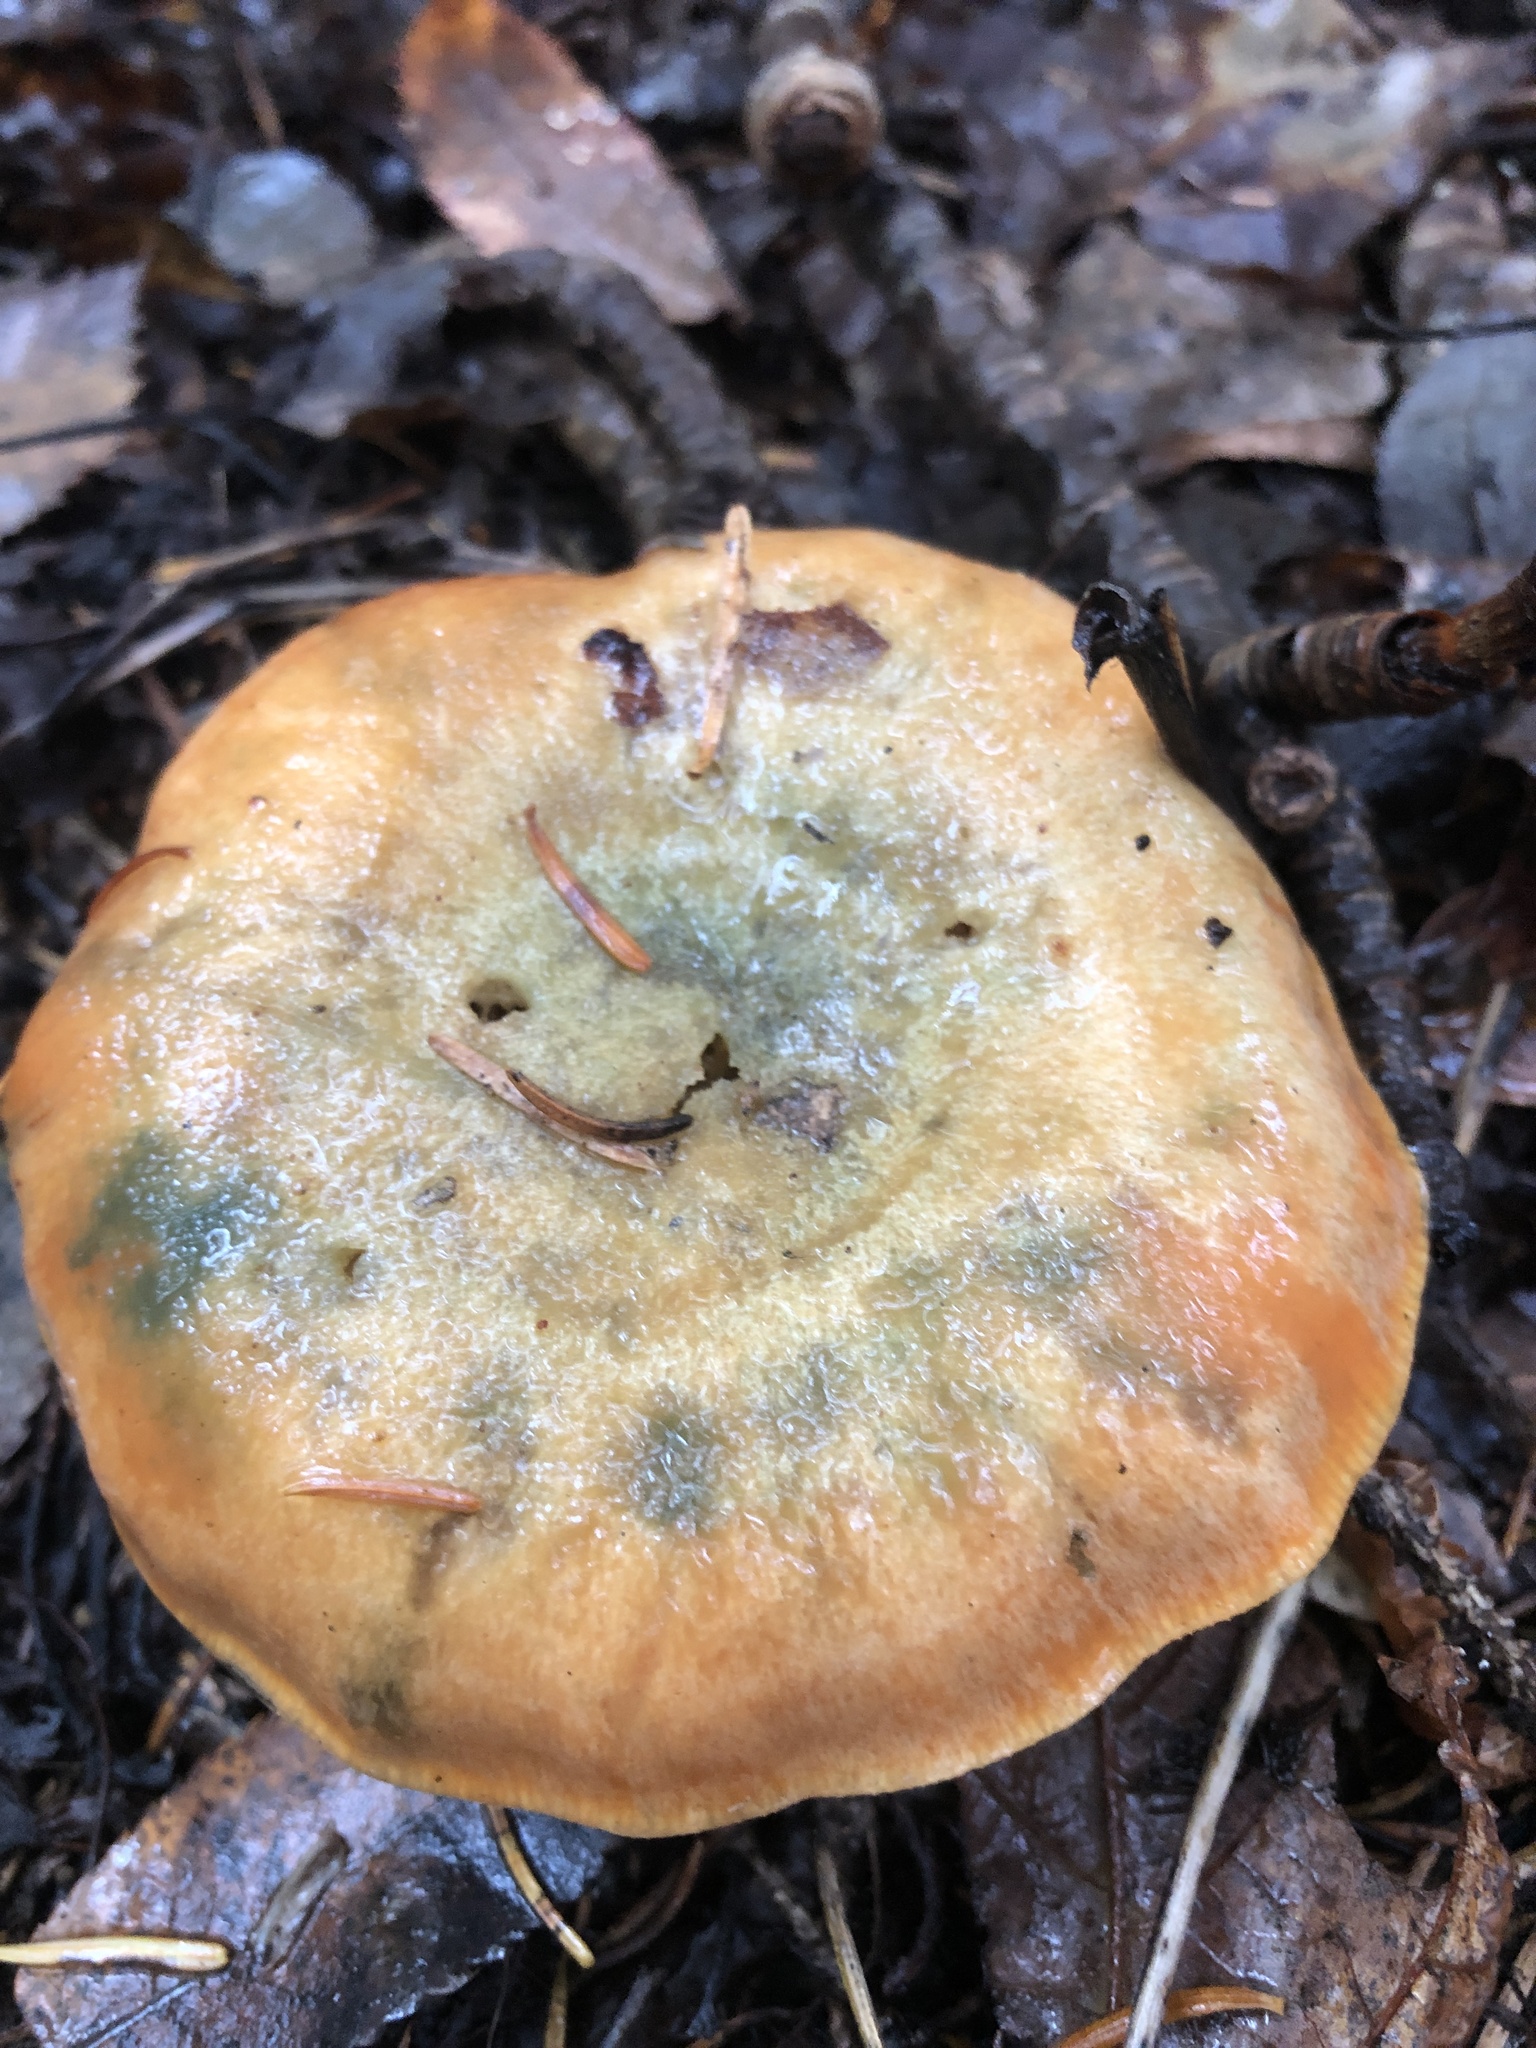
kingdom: Fungi
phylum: Basidiomycota
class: Agaricomycetes
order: Russulales
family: Russulaceae
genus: Lactarius
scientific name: Lactarius chelidonium
